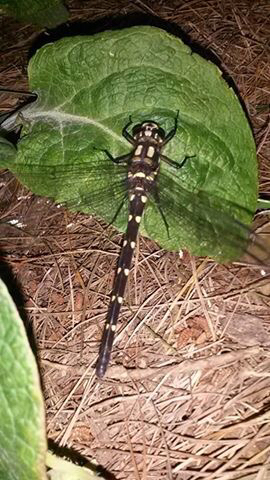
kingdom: Animalia
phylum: Arthropoda
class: Insecta
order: Odonata
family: Petaluridae
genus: Uropetala
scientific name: Uropetala carovei
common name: Bush giant dragonfly
